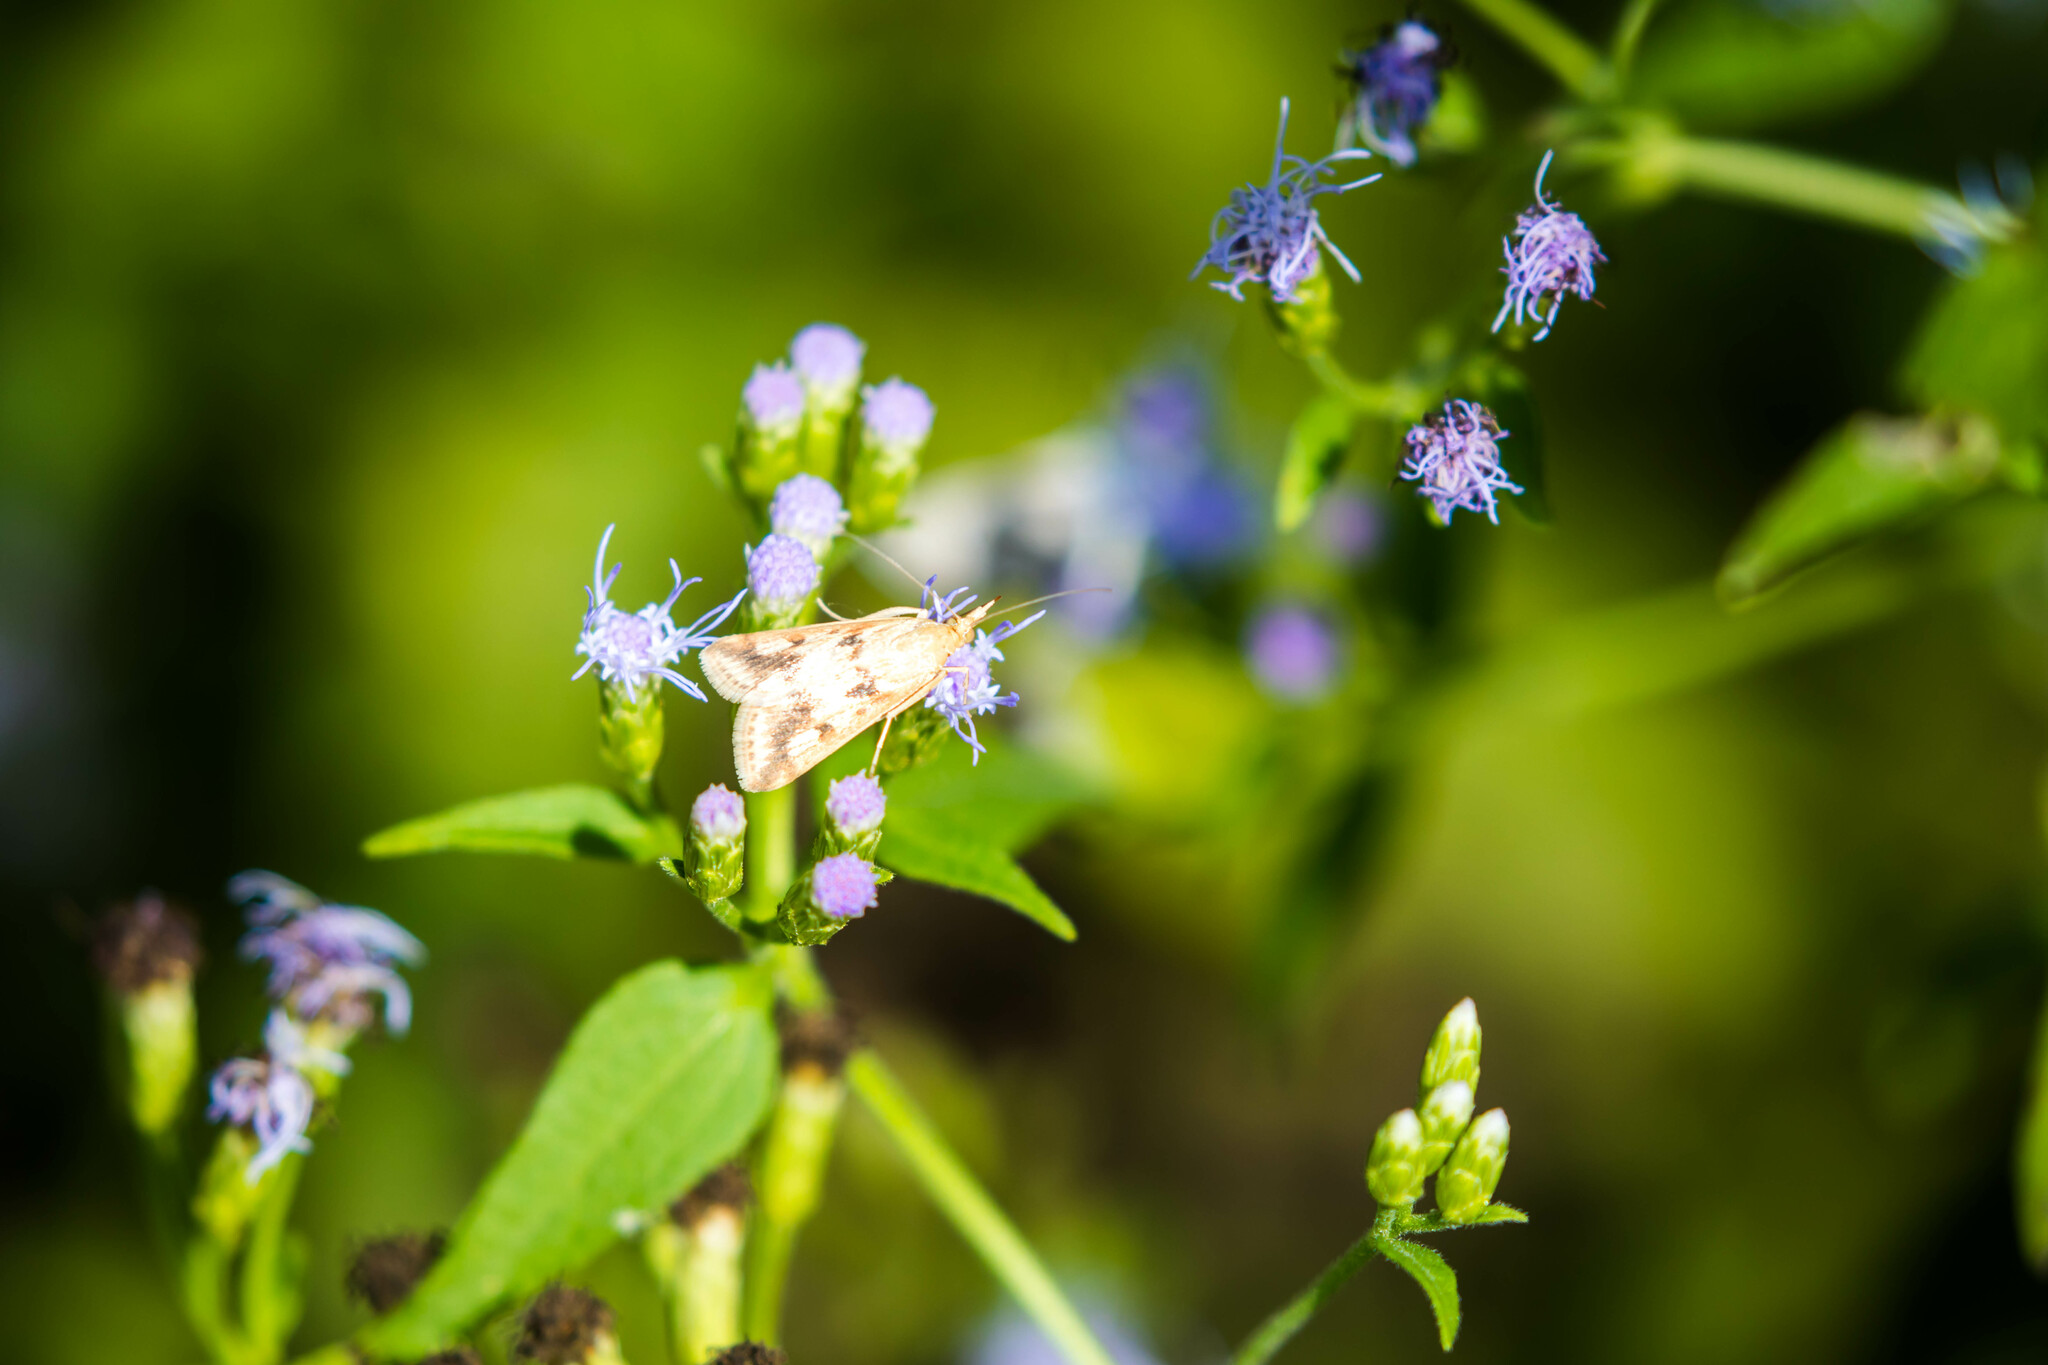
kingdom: Animalia
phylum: Arthropoda
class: Insecta
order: Lepidoptera
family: Crambidae
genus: Achyra
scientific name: Achyra bifidalis
